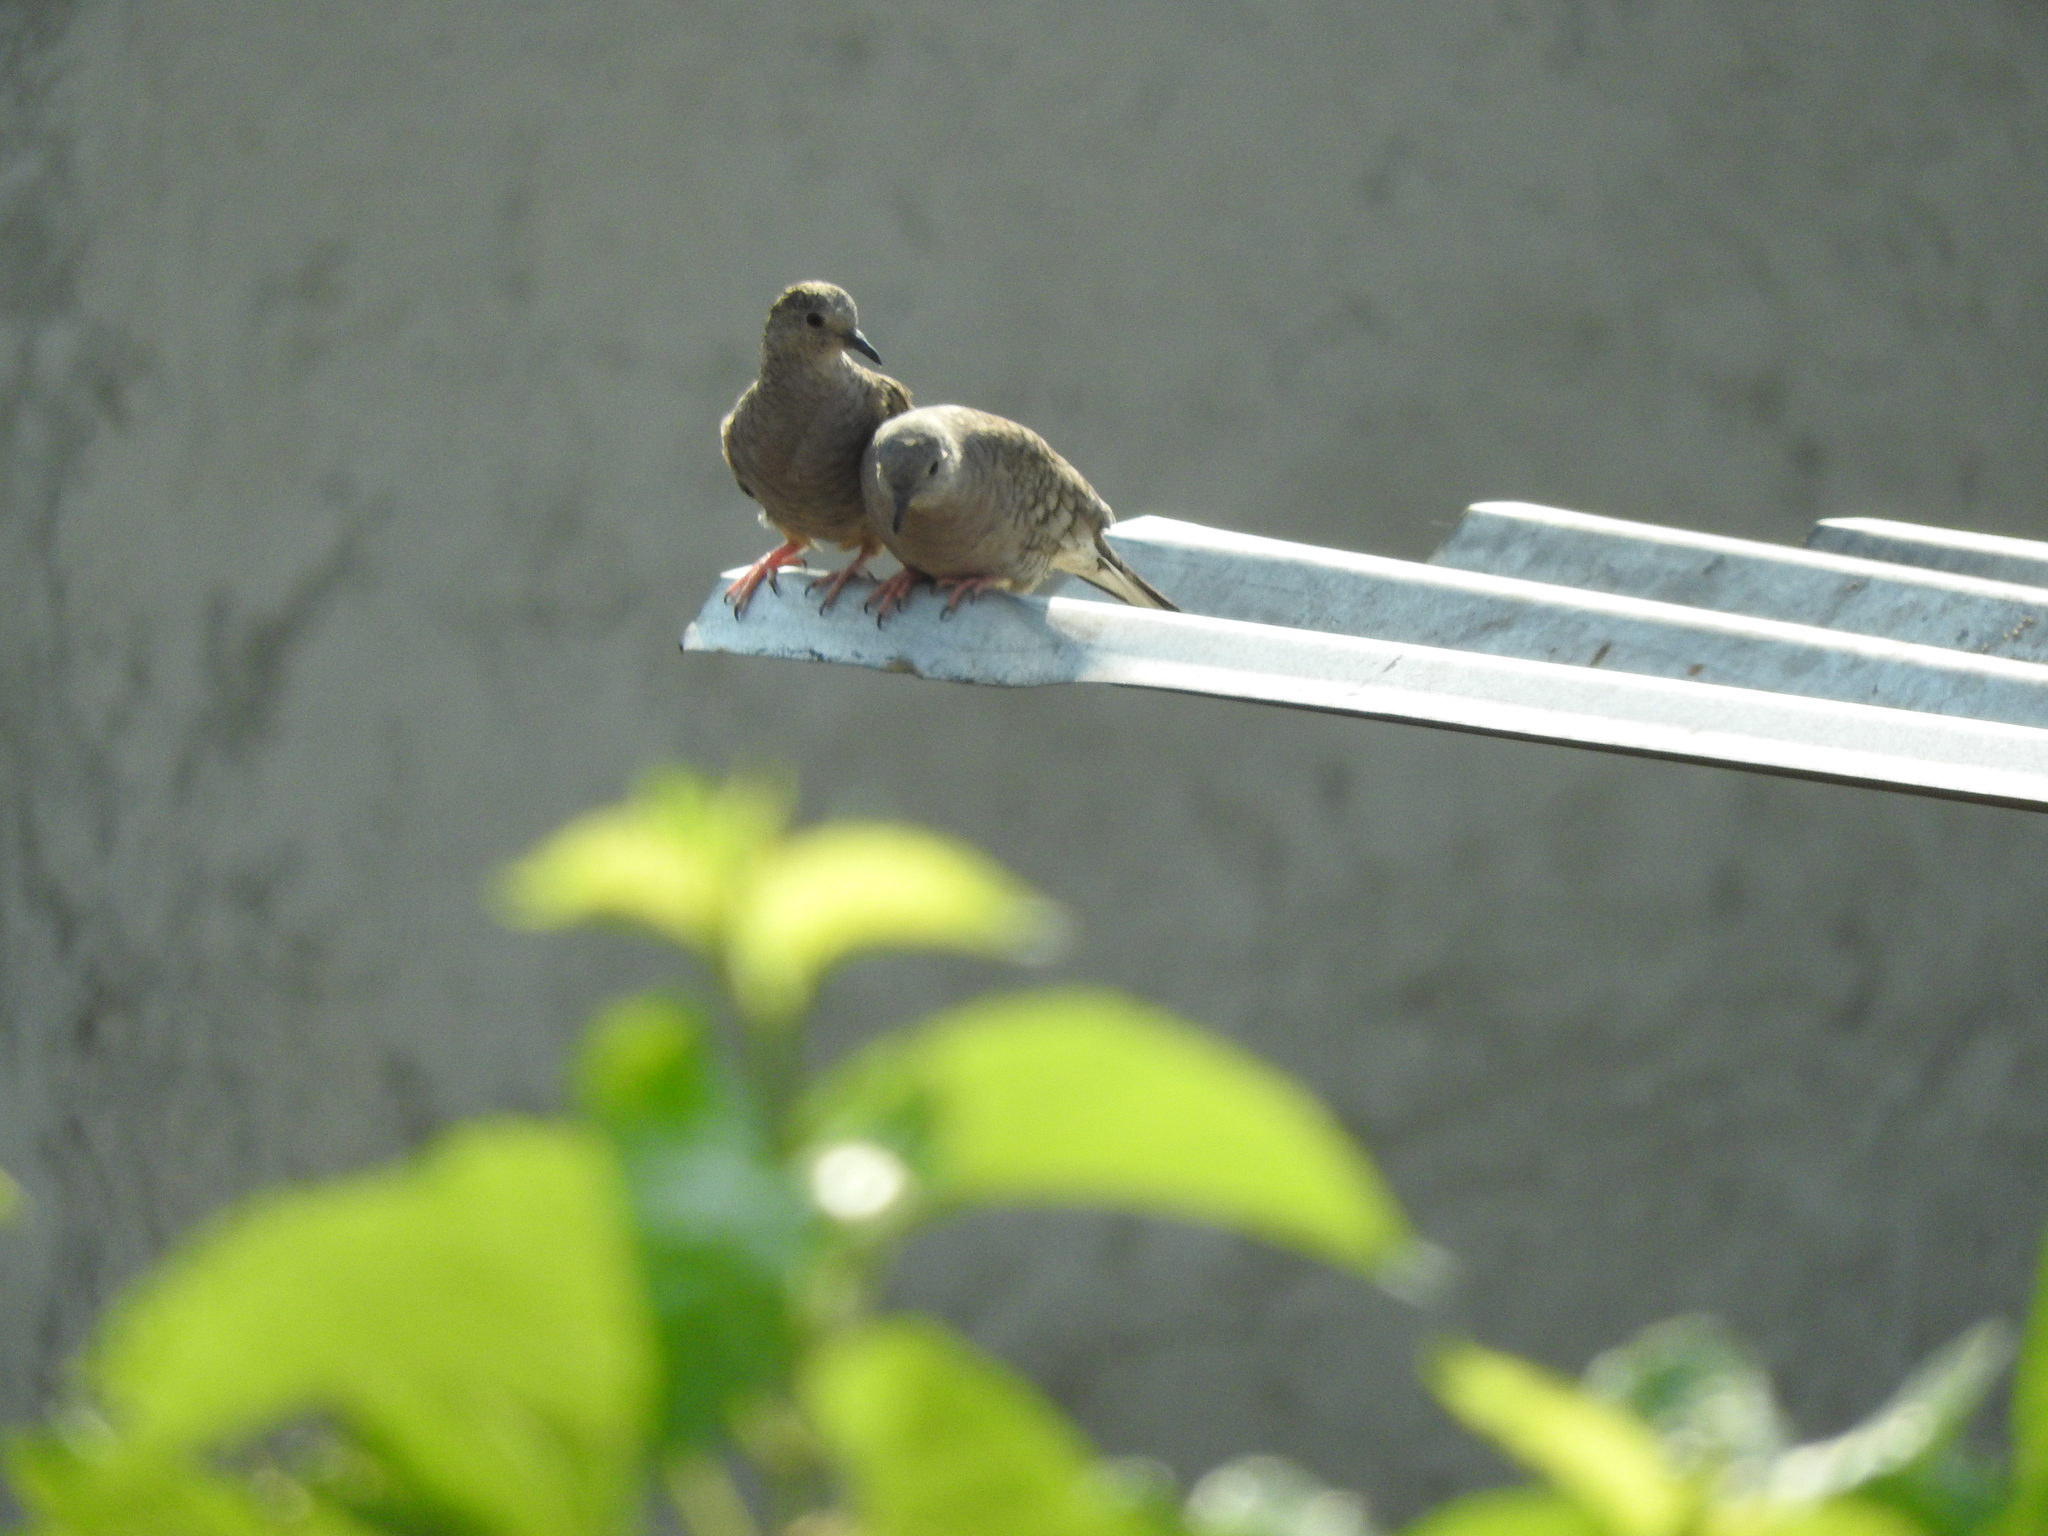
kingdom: Animalia
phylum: Chordata
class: Aves
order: Columbiformes
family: Columbidae
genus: Columbina
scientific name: Columbina inca
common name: Inca dove
